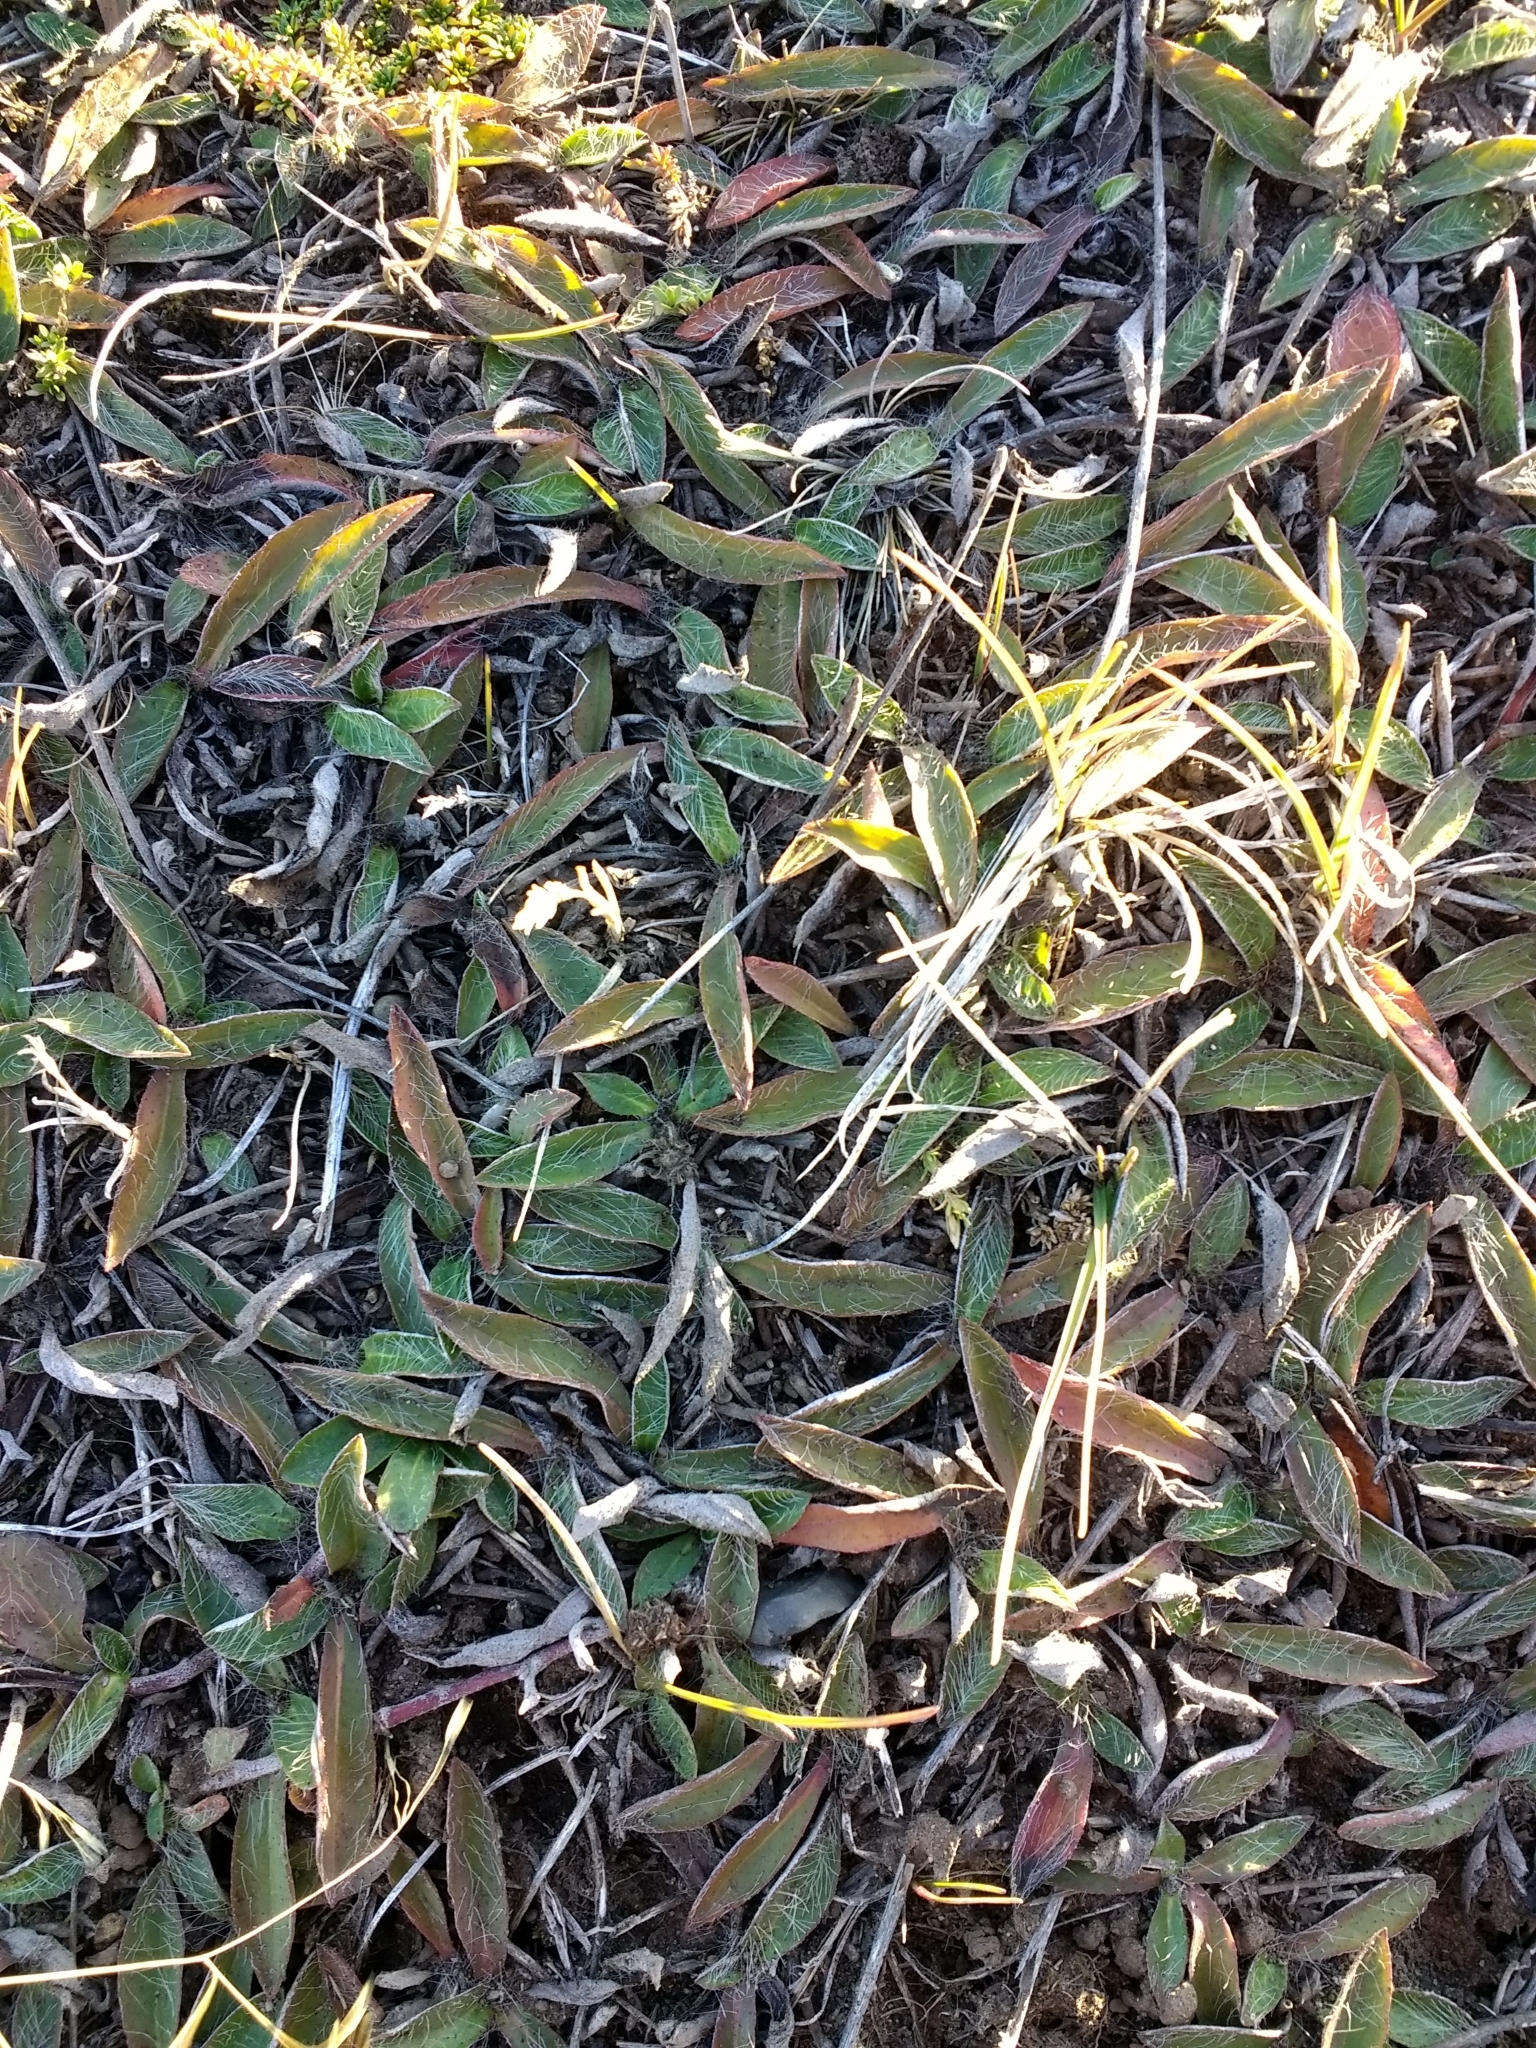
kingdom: Plantae
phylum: Tracheophyta
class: Magnoliopsida
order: Asterales
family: Asteraceae
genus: Pilosella
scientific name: Pilosella officinarum
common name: Mouse-ear hawkweed
